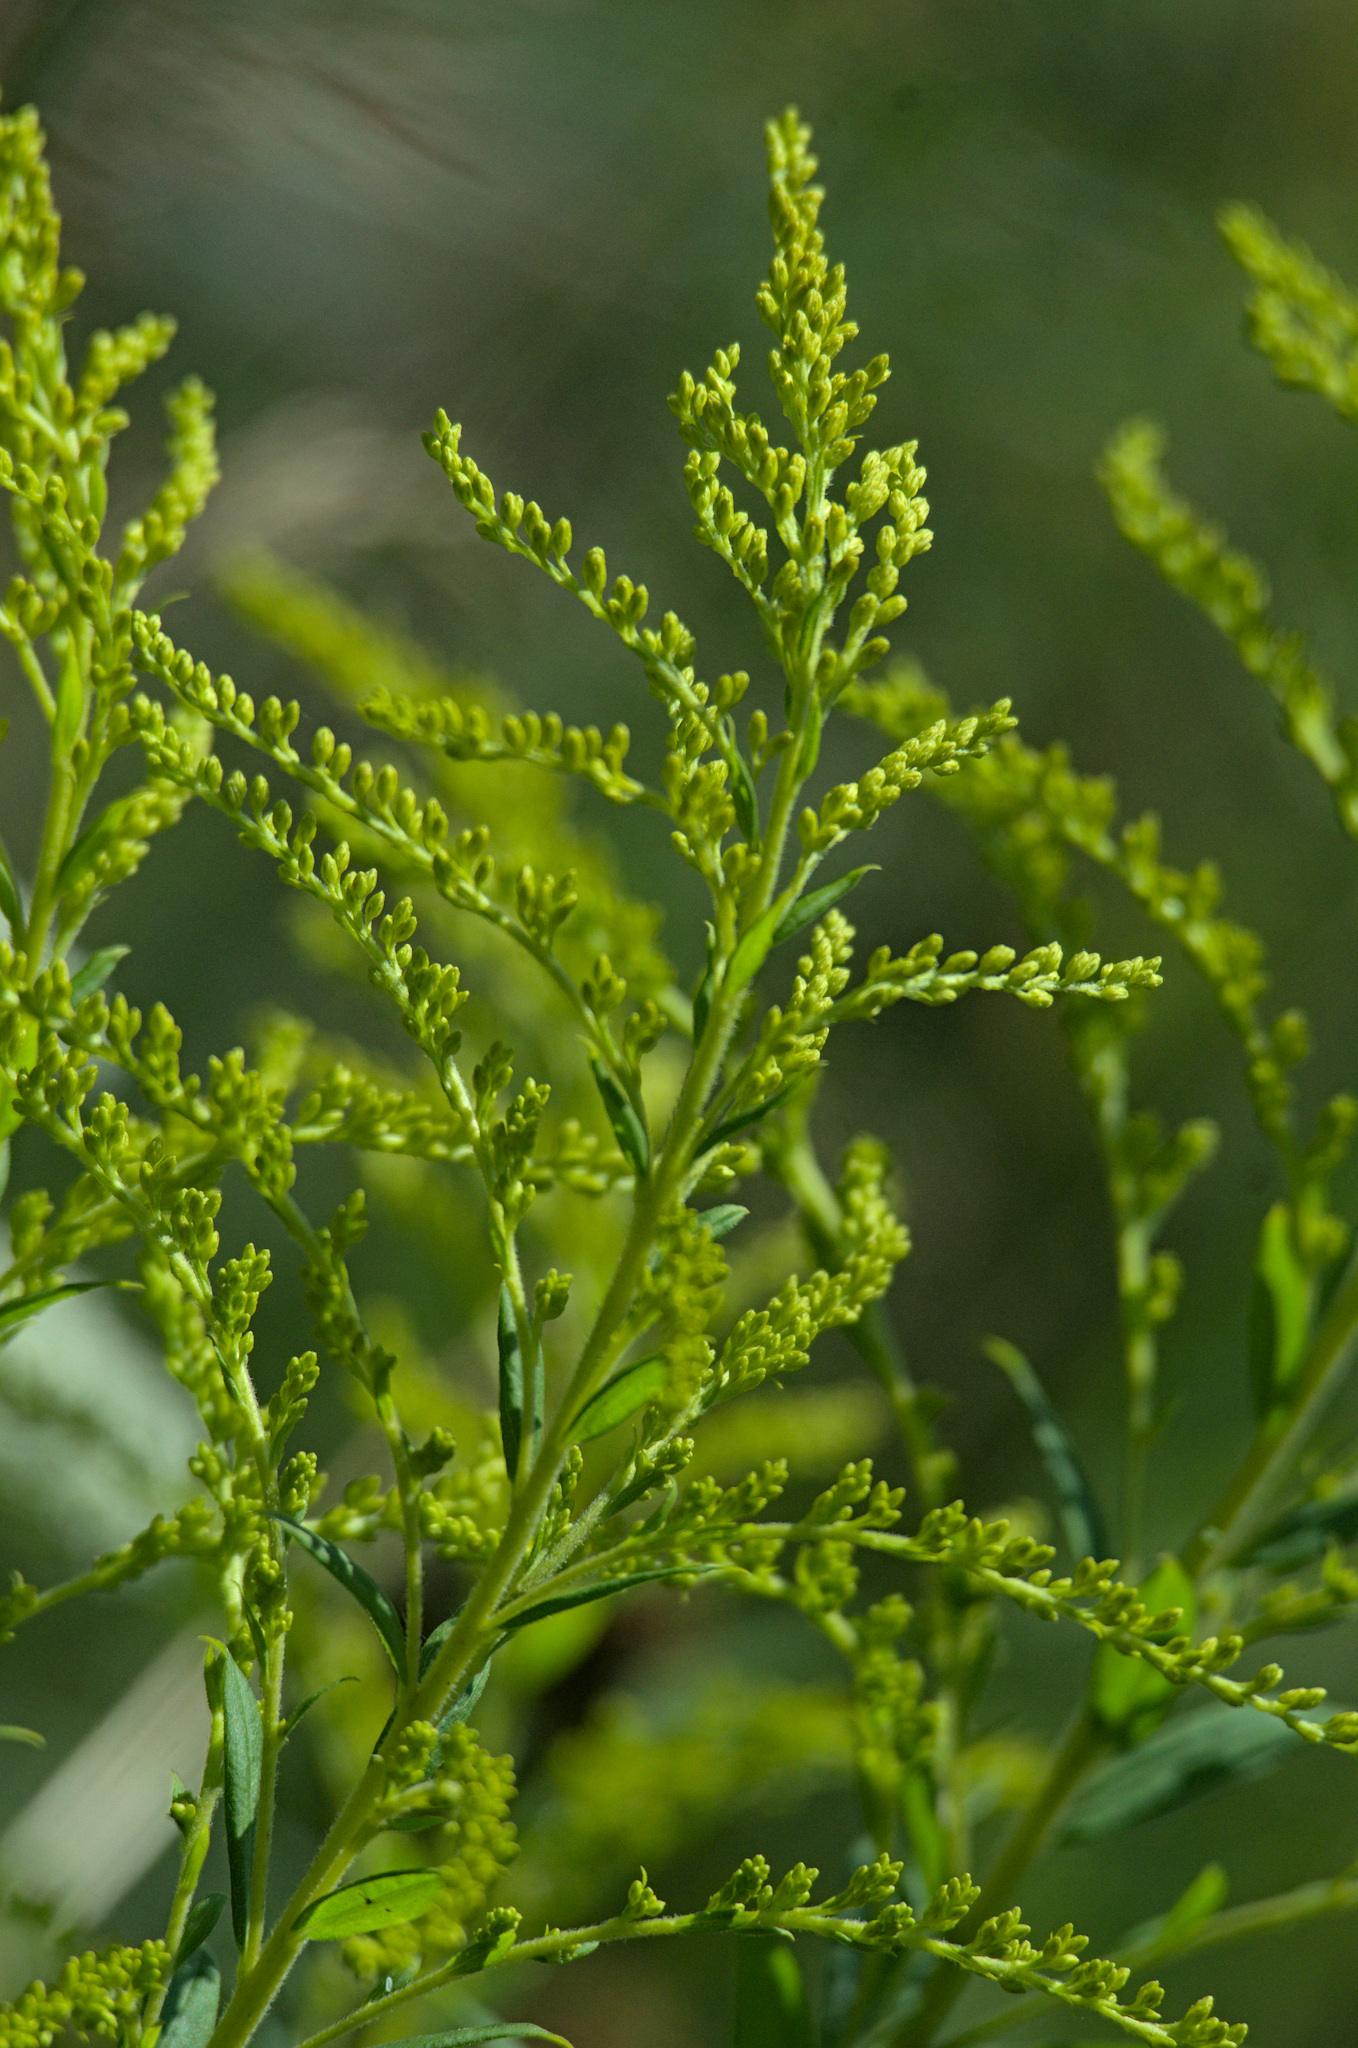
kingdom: Plantae
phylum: Tracheophyta
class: Magnoliopsida
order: Asterales
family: Asteraceae
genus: Solidago
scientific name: Solidago canadensis
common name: Canada goldenrod
